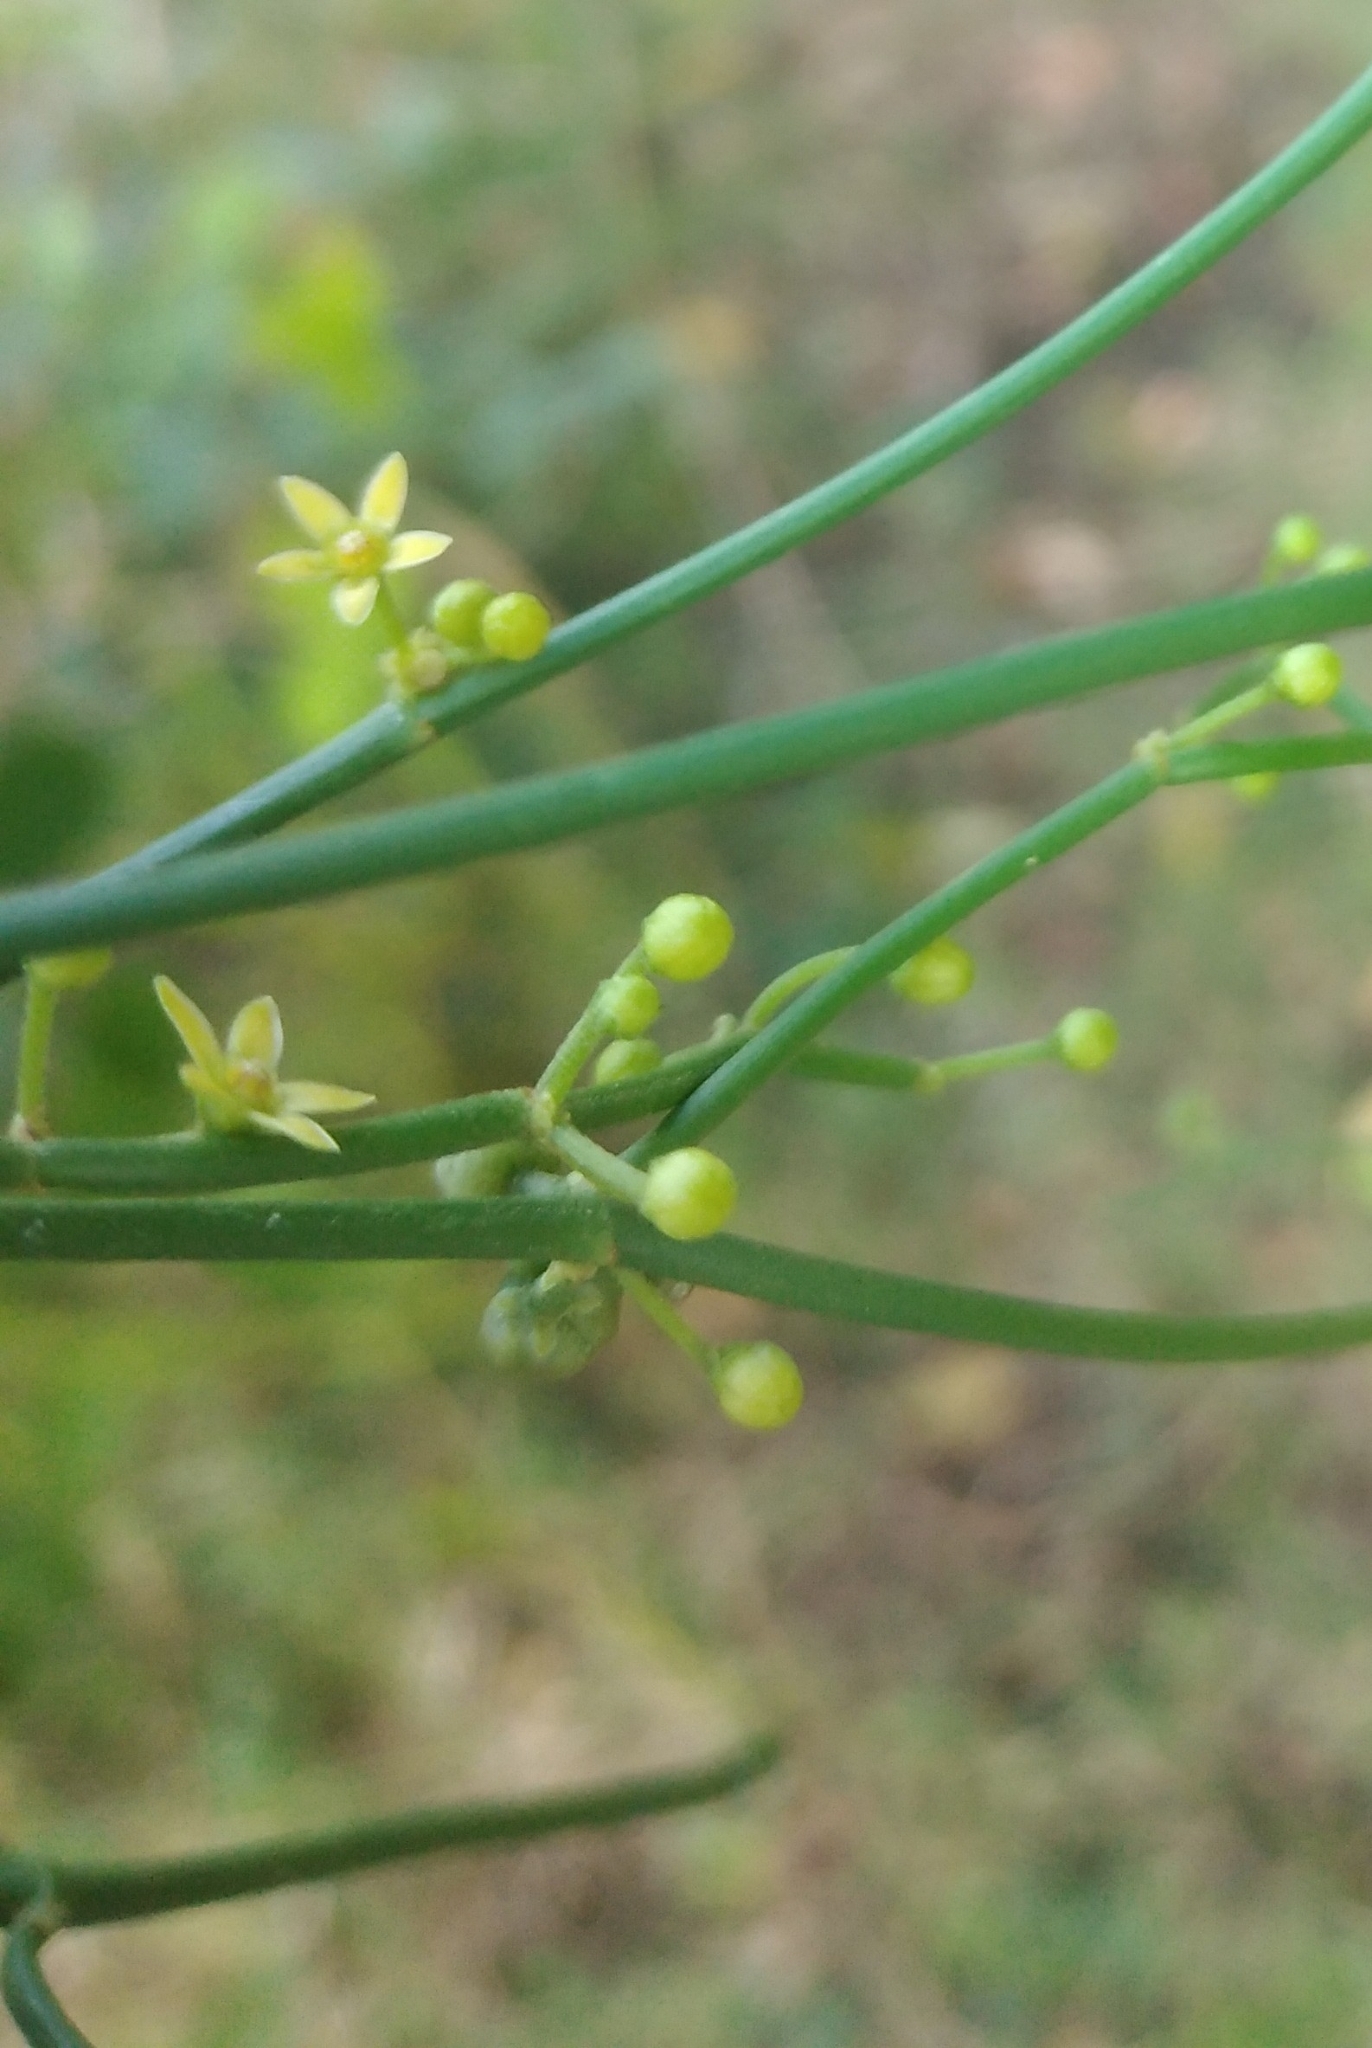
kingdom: Plantae
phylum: Tracheophyta
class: Magnoliopsida
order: Gentianales
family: Apocynaceae
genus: Orthosia
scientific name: Orthosia scoparia
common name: Leafless swallow-wort
